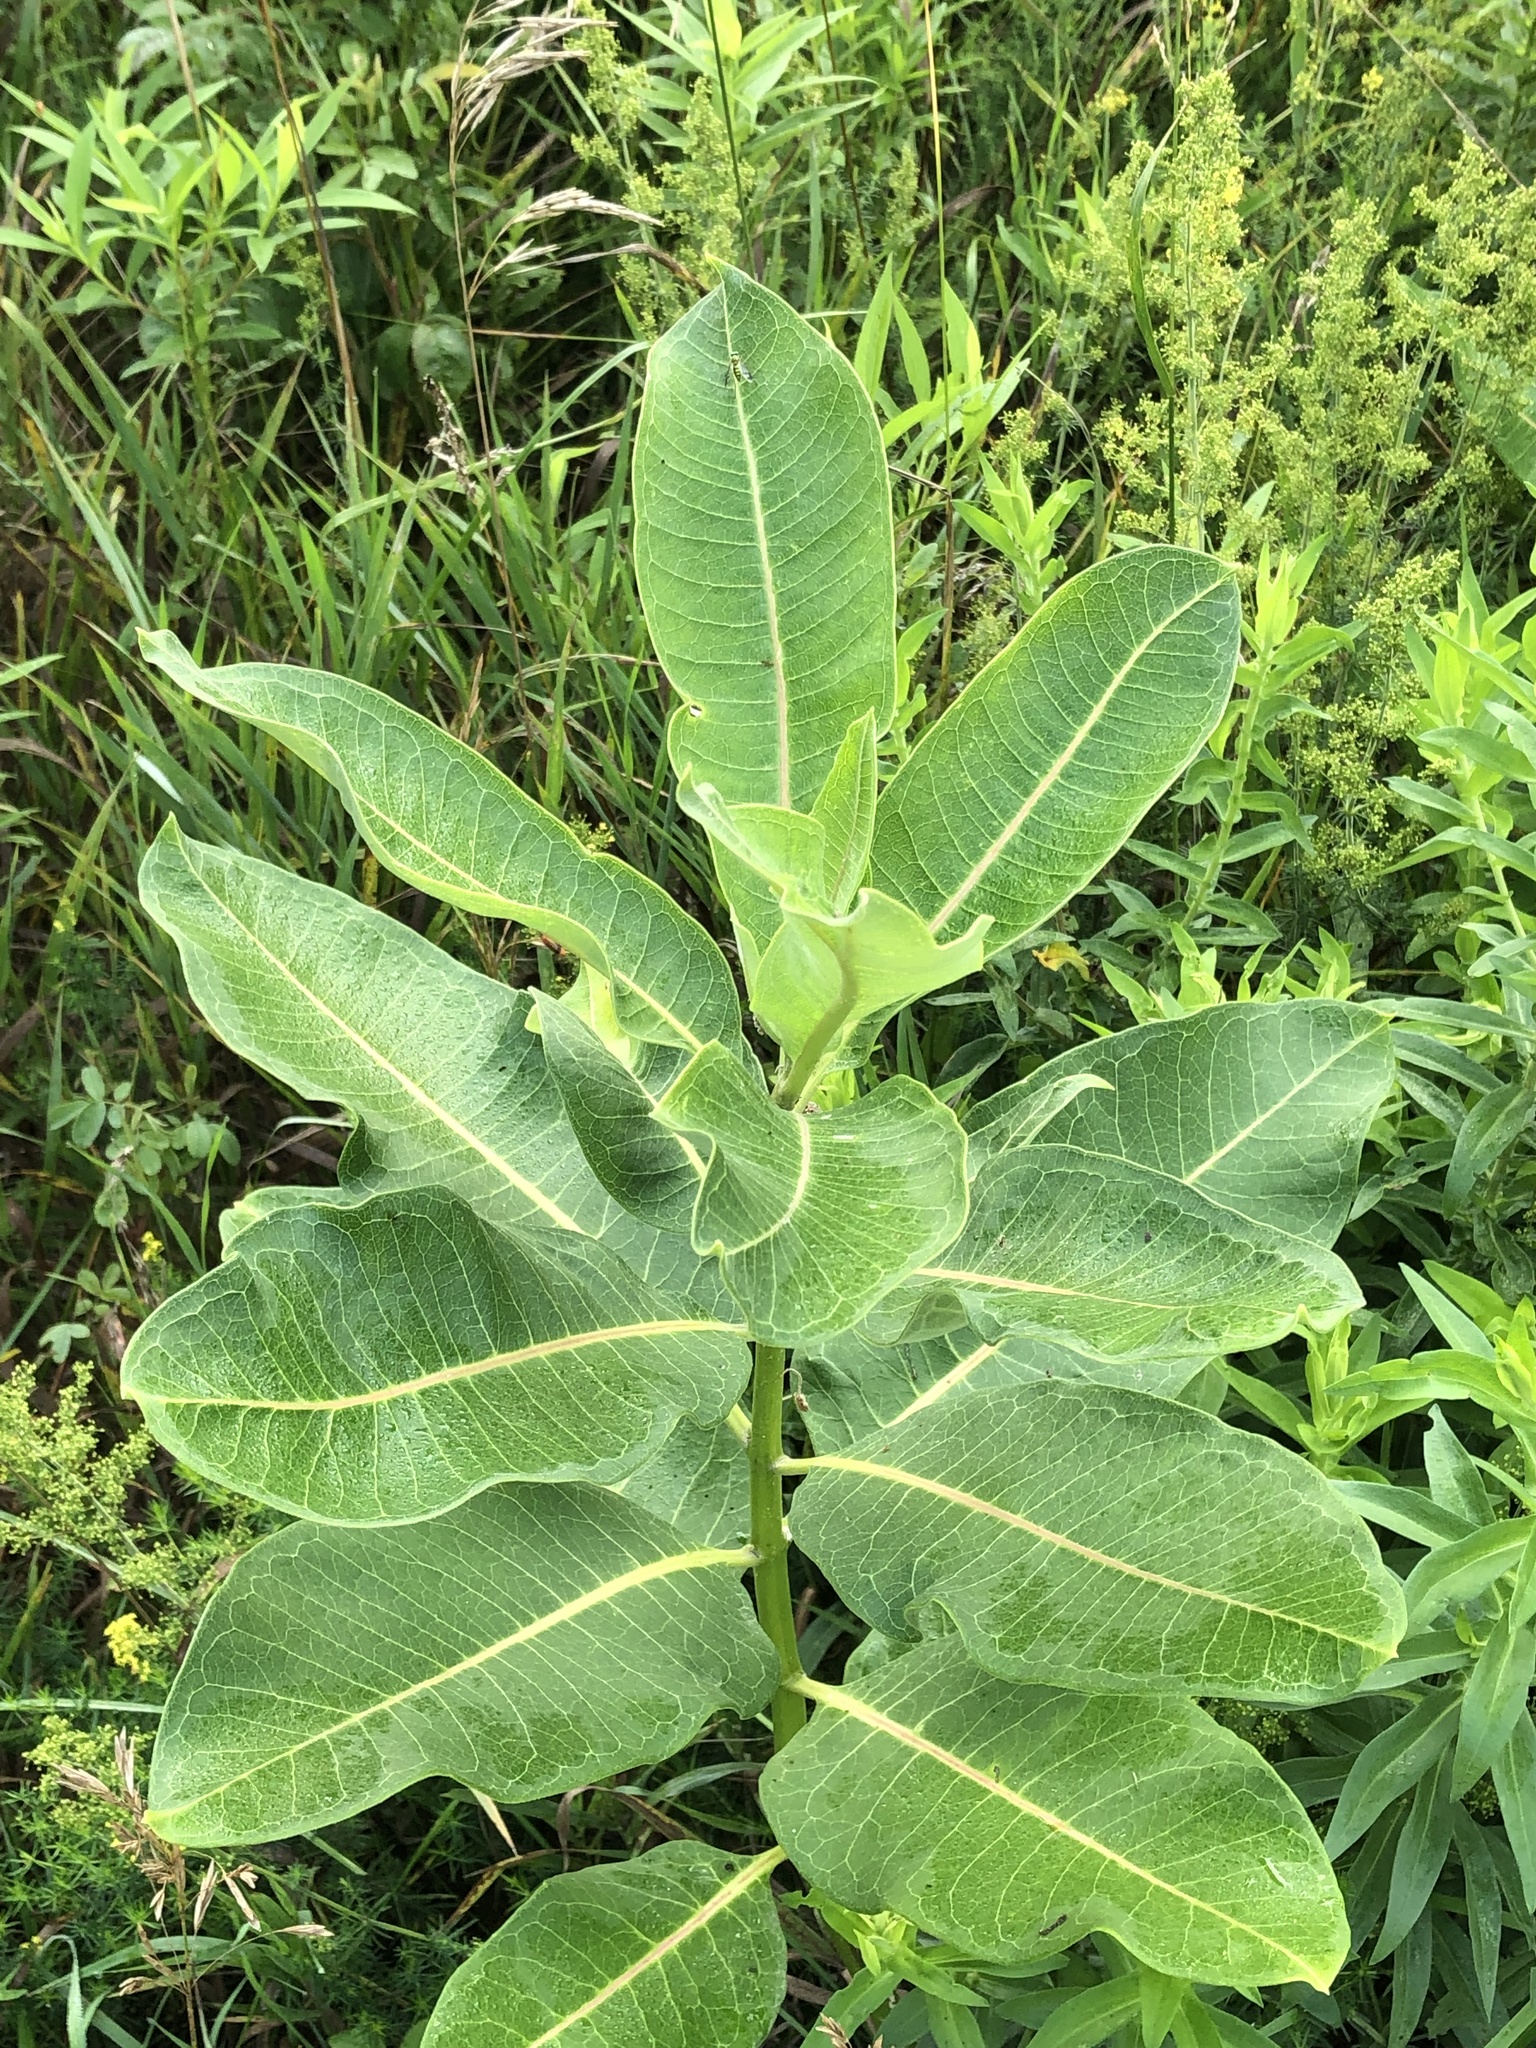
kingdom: Plantae
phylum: Tracheophyta
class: Magnoliopsida
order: Gentianales
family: Apocynaceae
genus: Asclepias
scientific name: Asclepias syriaca
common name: Common milkweed
